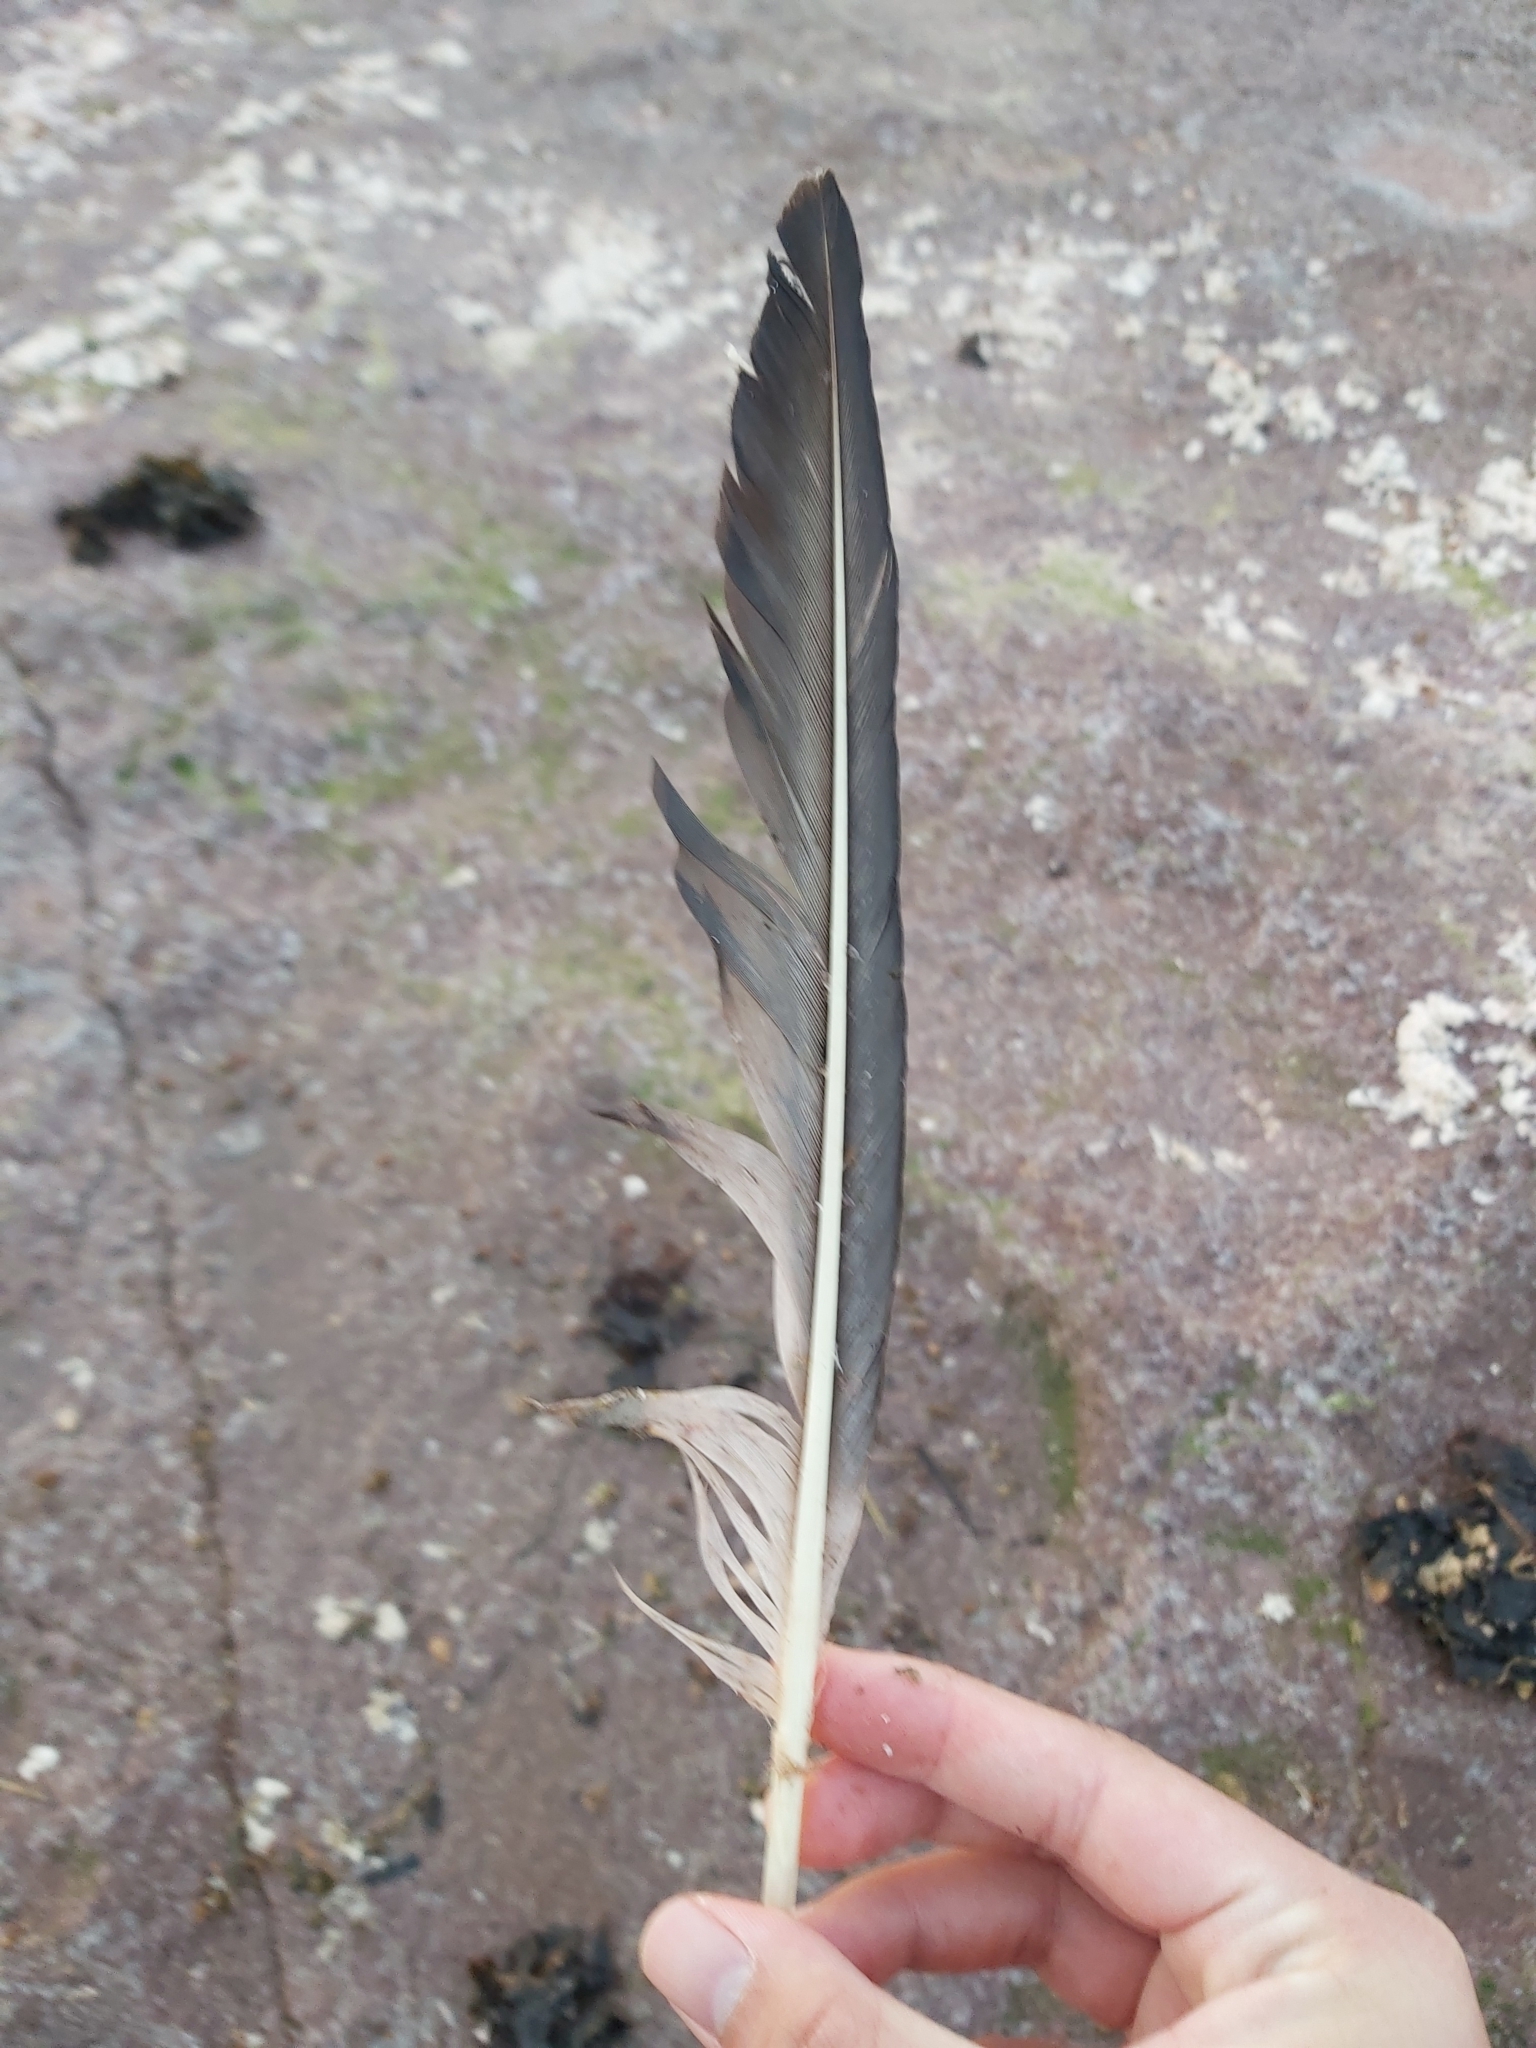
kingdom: Animalia
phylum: Chordata
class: Aves
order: Suliformes
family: Sulidae
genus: Morus
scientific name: Morus serrator
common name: Australasian gannet
